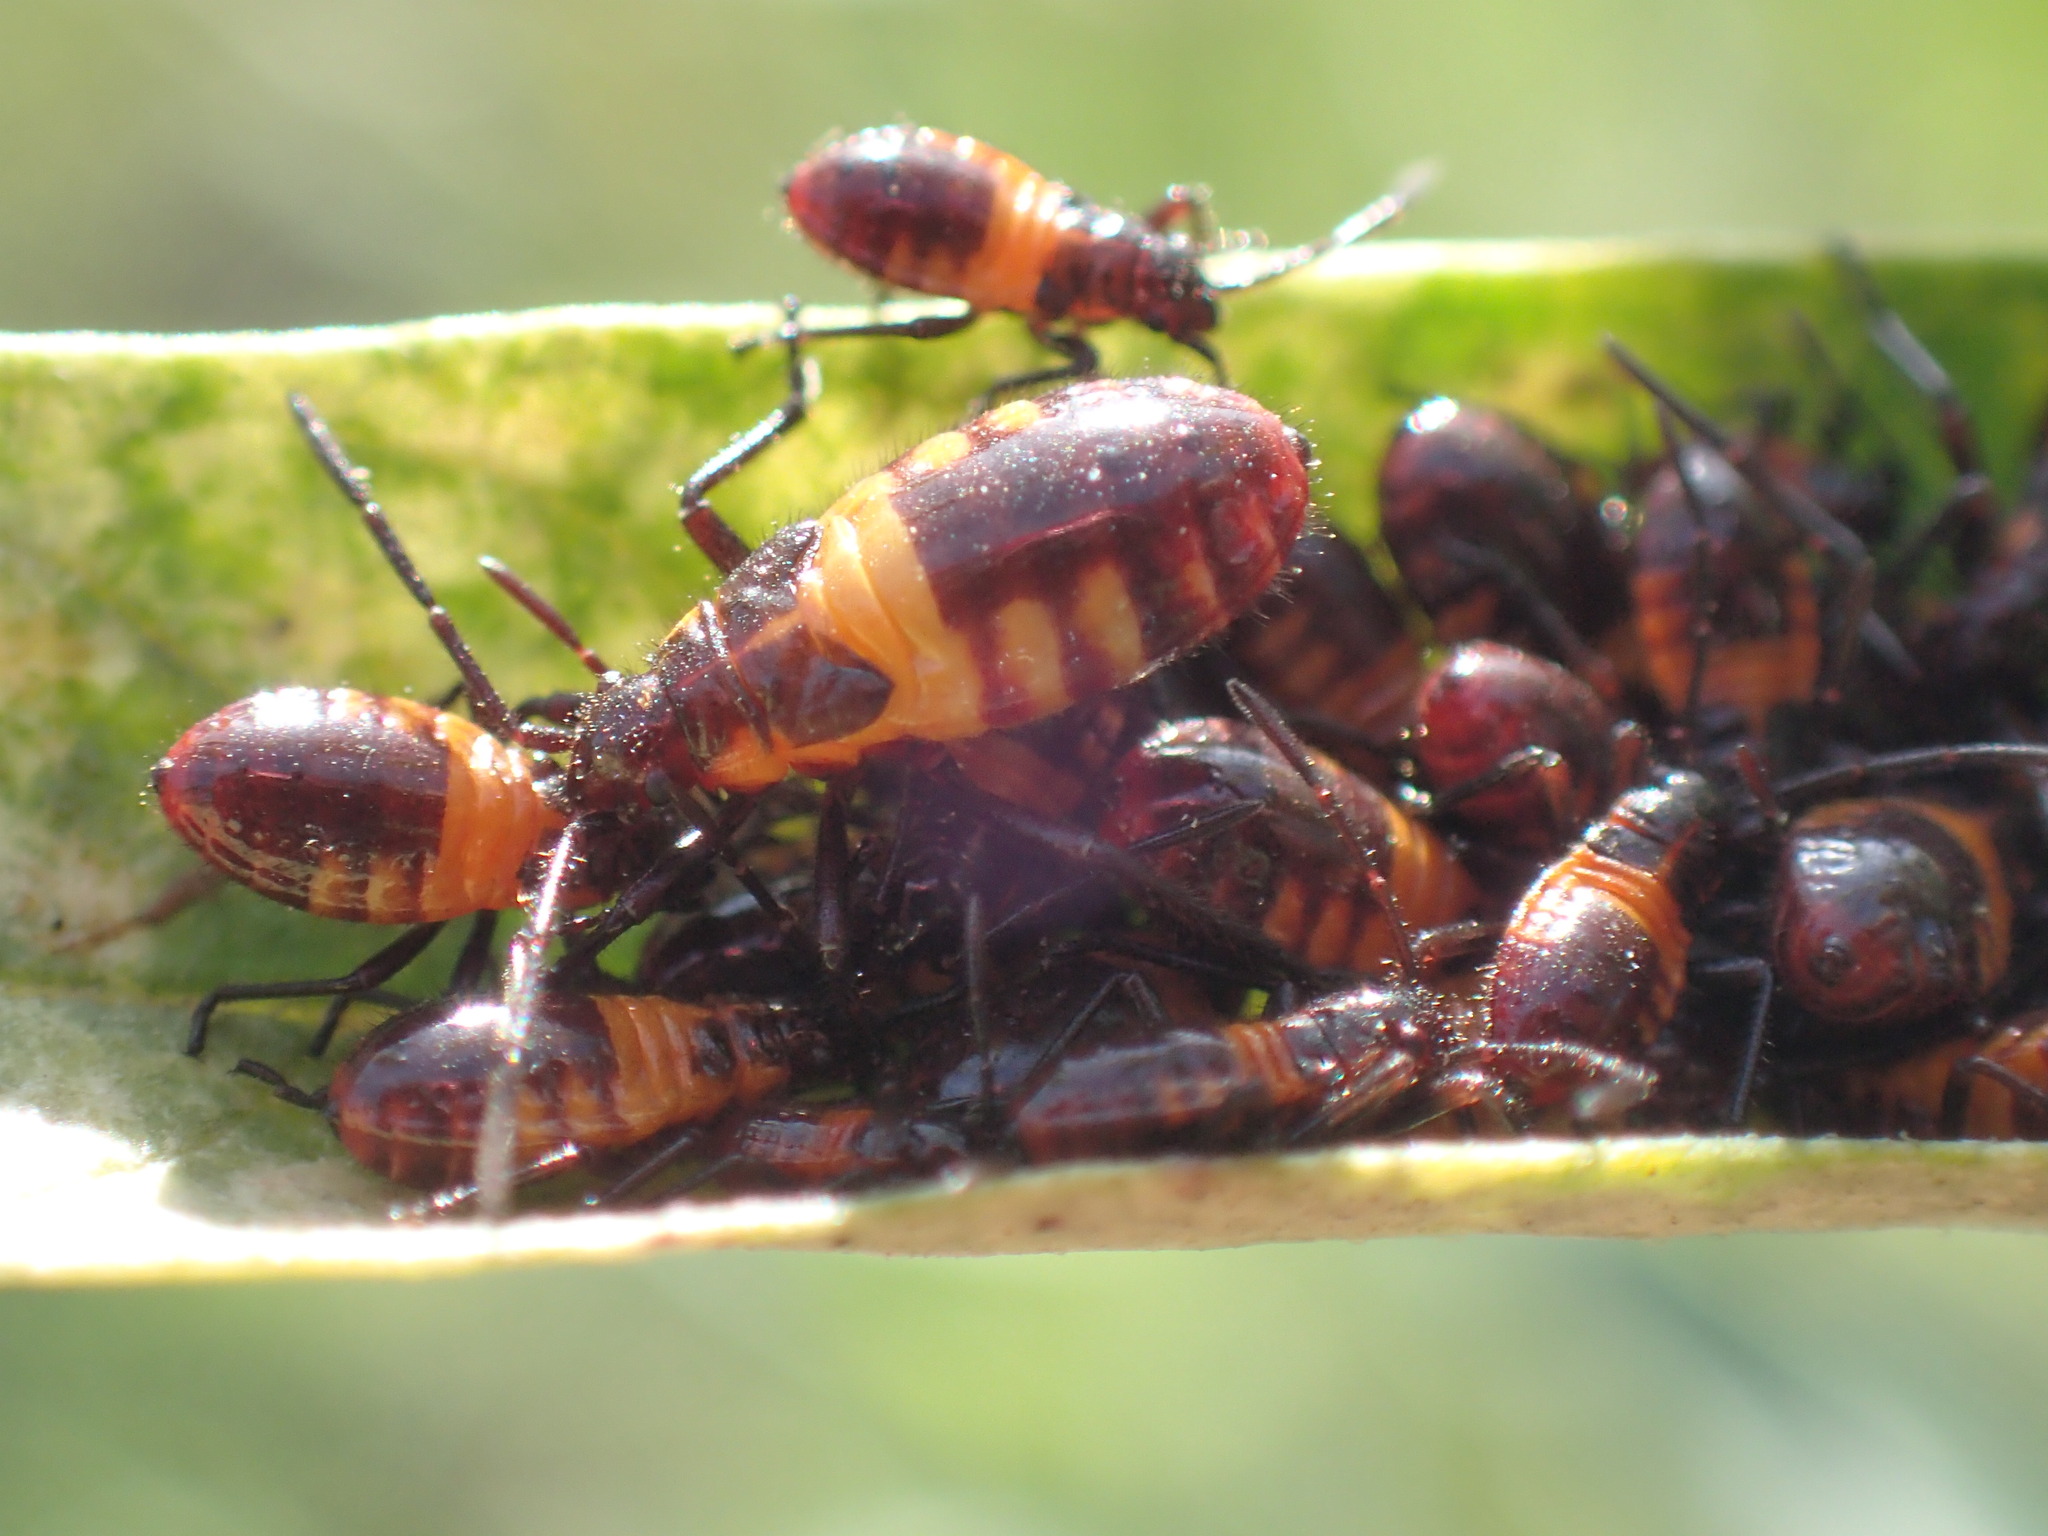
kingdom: Animalia
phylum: Arthropoda
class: Insecta
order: Hemiptera
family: Lygaeidae
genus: Oncopeltus
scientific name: Oncopeltus famelicus
